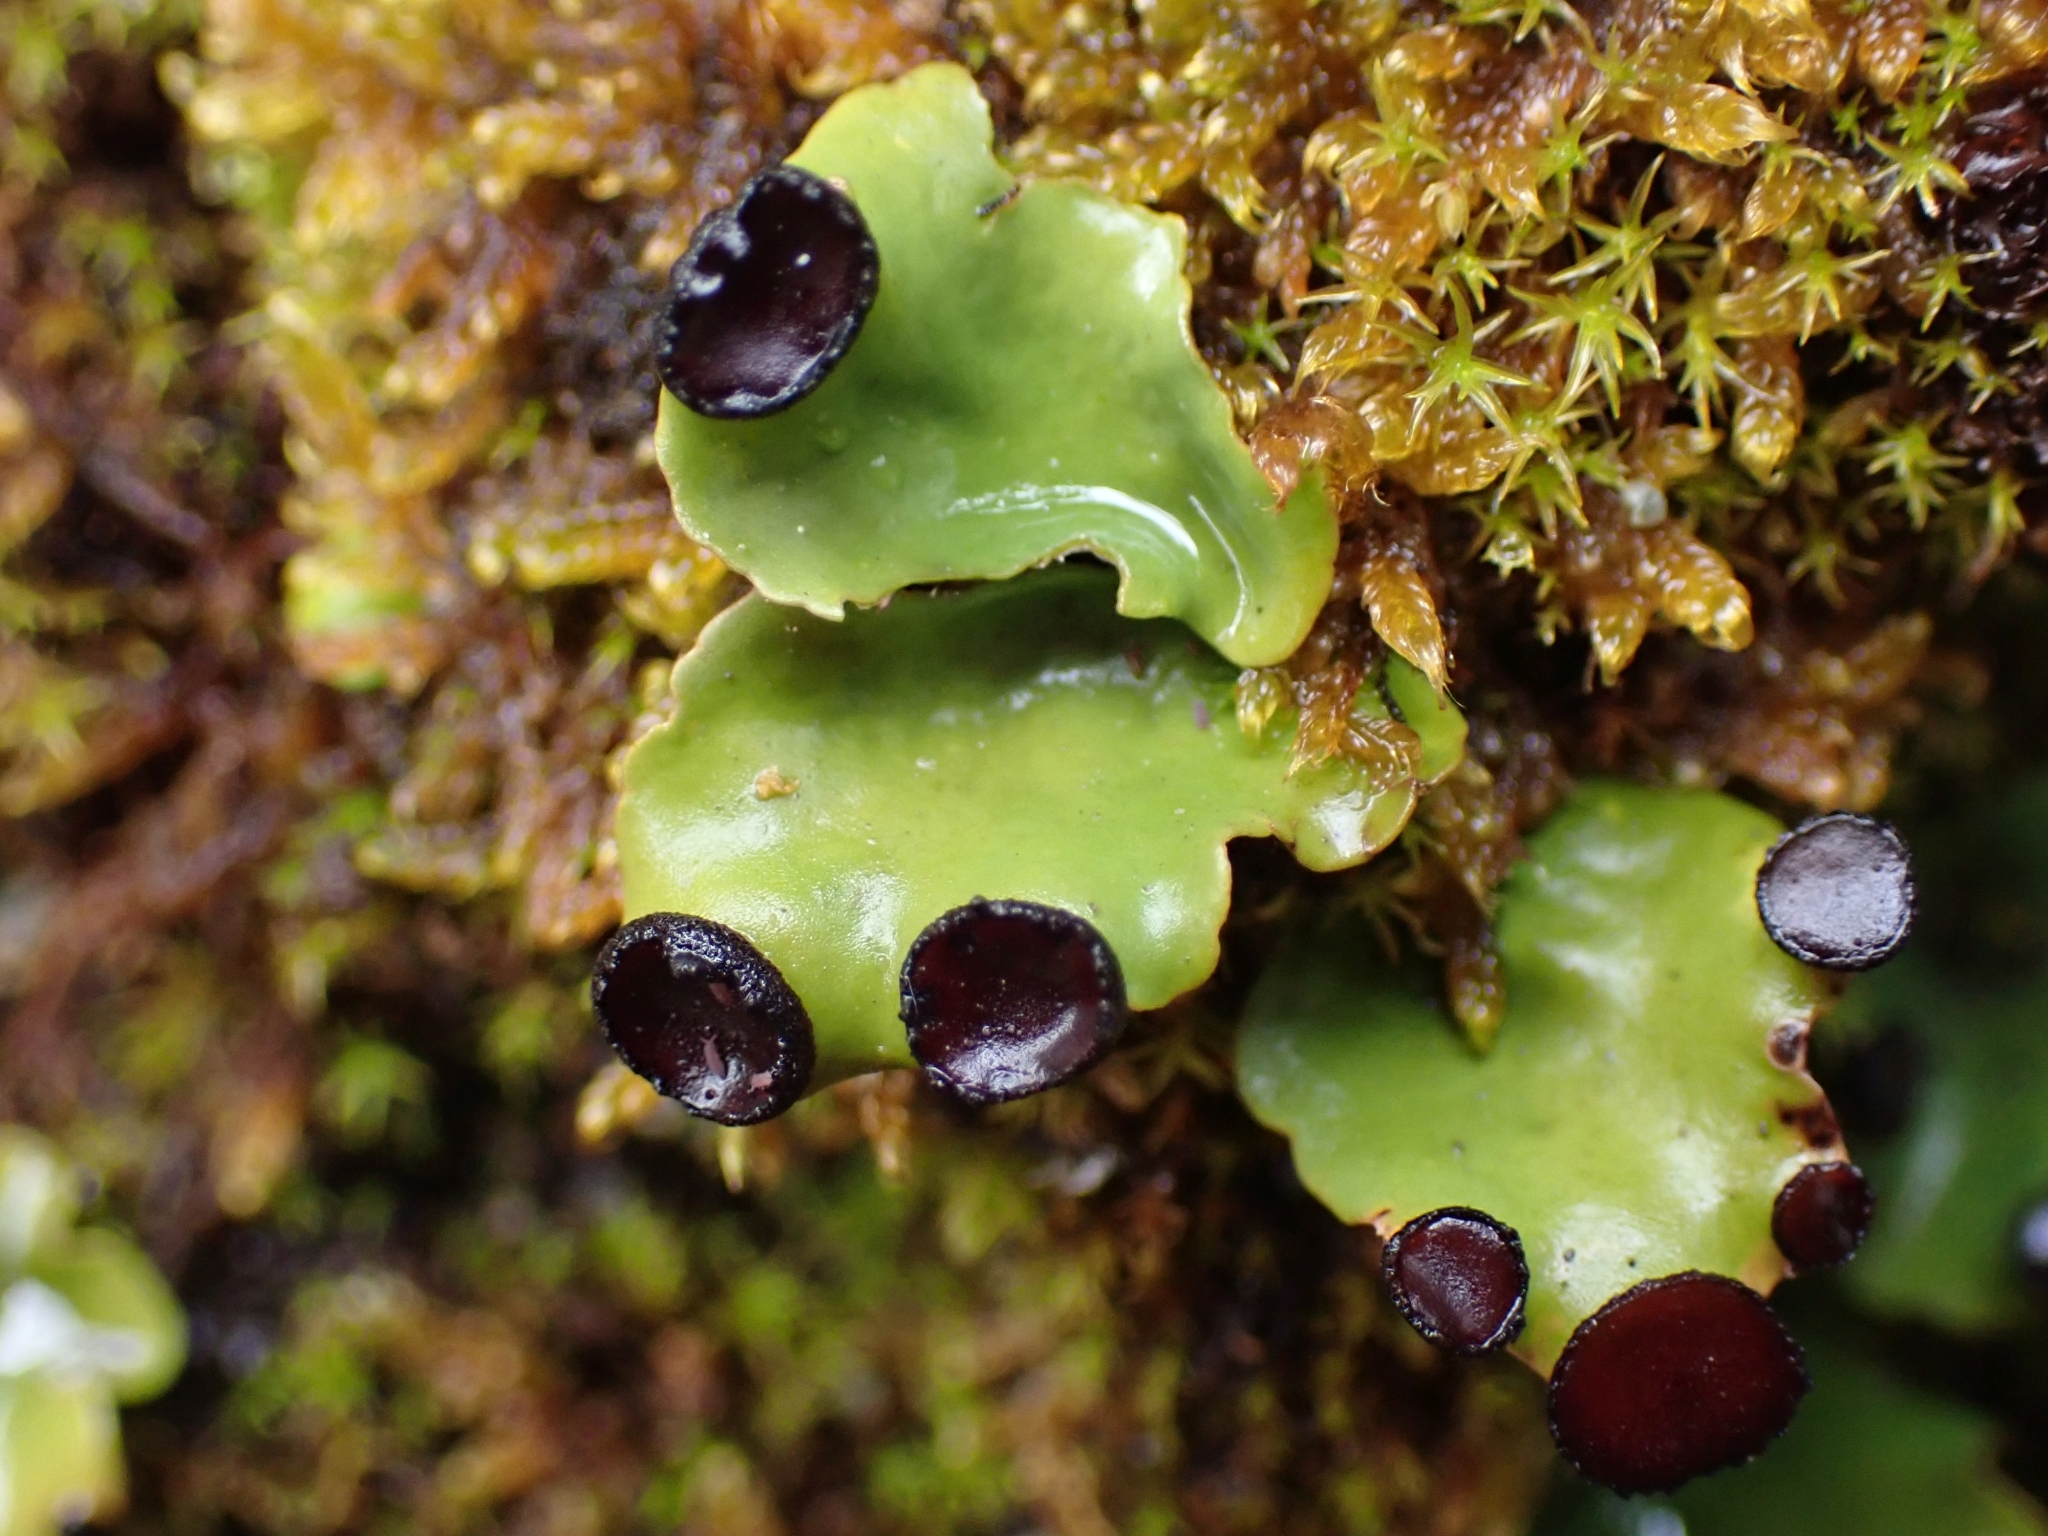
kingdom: Fungi
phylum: Ascomycota
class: Lecanoromycetes
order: Peltigerales
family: Peltigeraceae
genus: Peltigera
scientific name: Peltigera venosa
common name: Pixie gowns lichen
